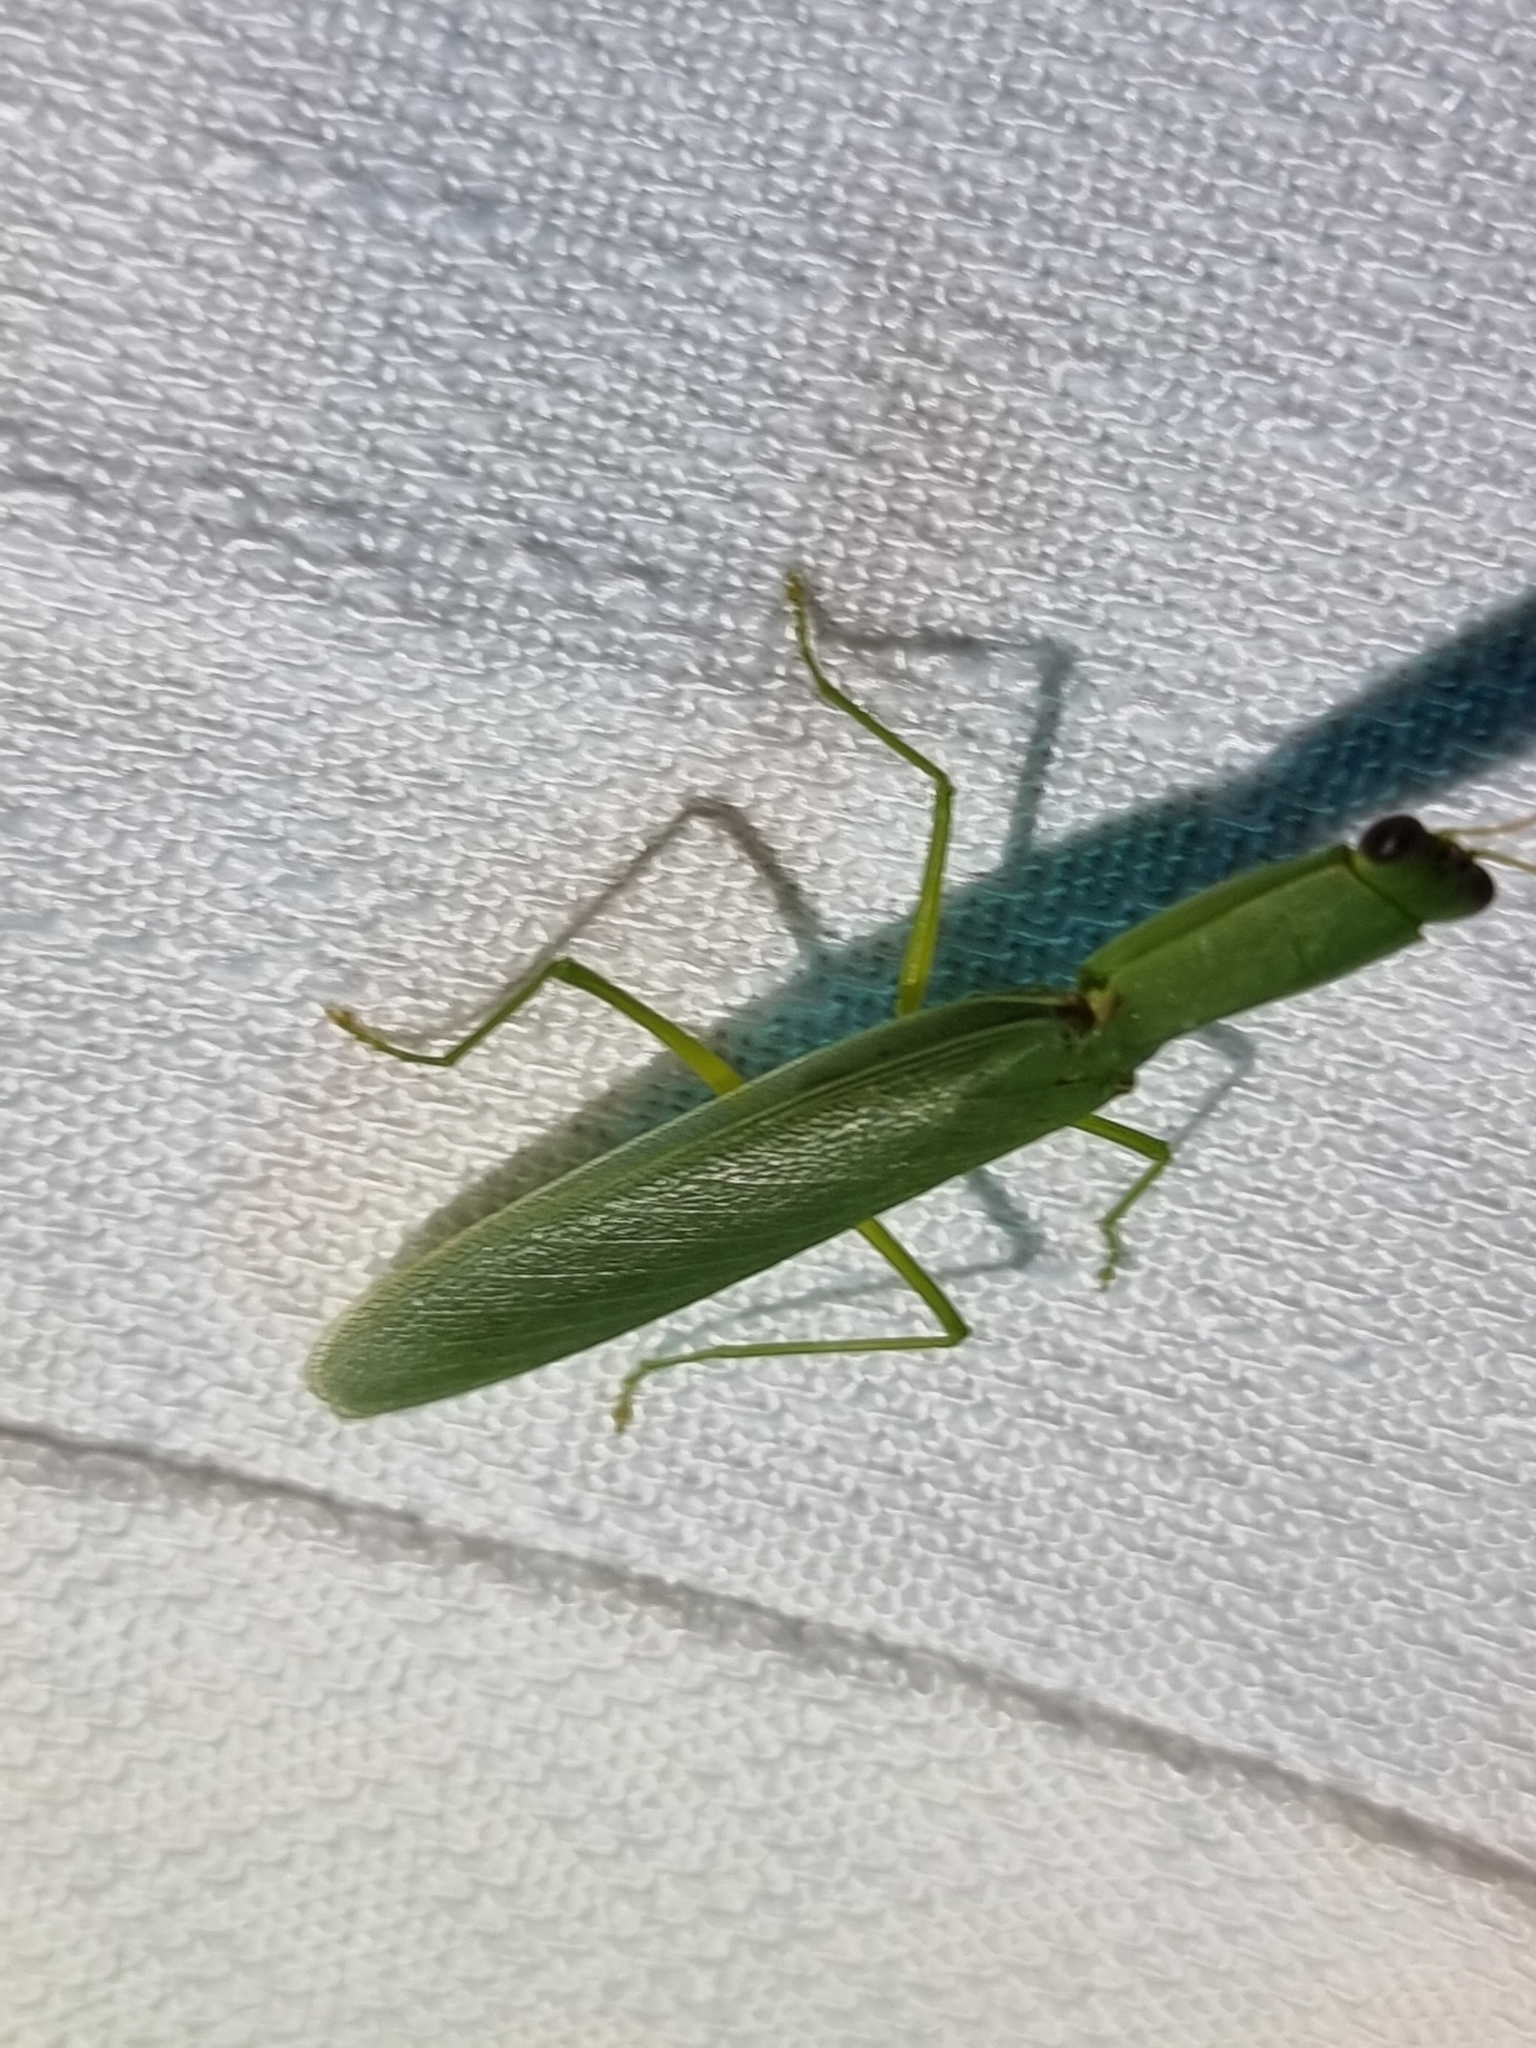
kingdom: Animalia
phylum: Arthropoda
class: Insecta
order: Mantodea
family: Mantidae
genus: Orthodera
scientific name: Orthodera ministralis
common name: Mantis
